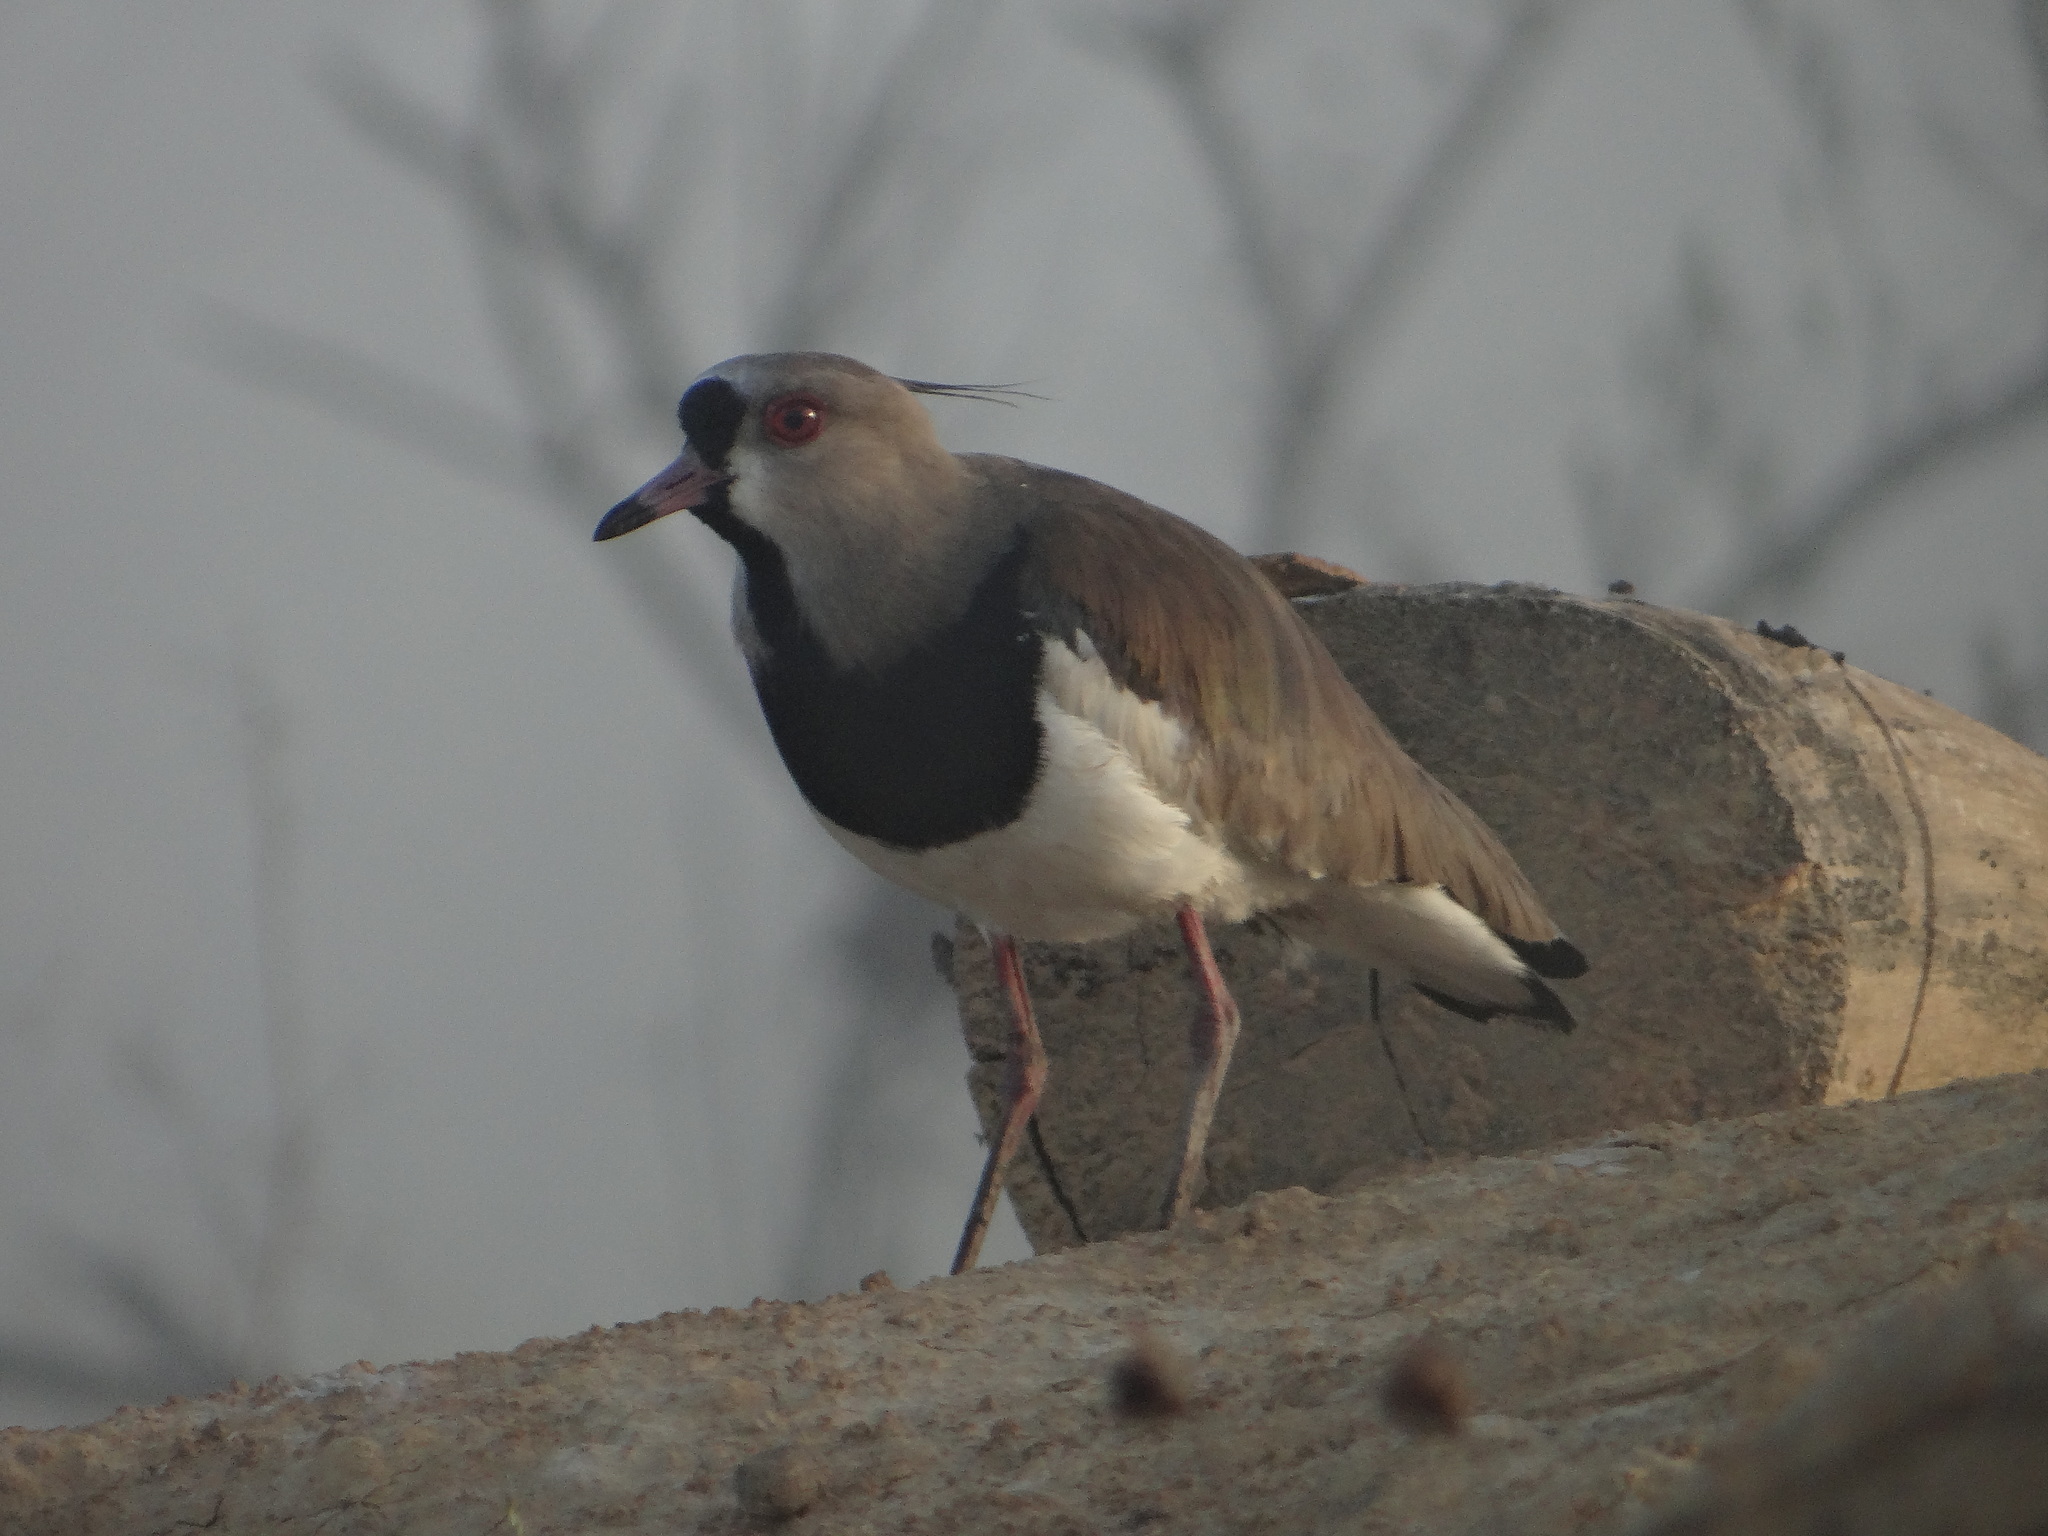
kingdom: Animalia
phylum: Chordata
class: Aves
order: Charadriiformes
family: Charadriidae
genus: Vanellus
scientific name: Vanellus chilensis
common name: Southern lapwing
